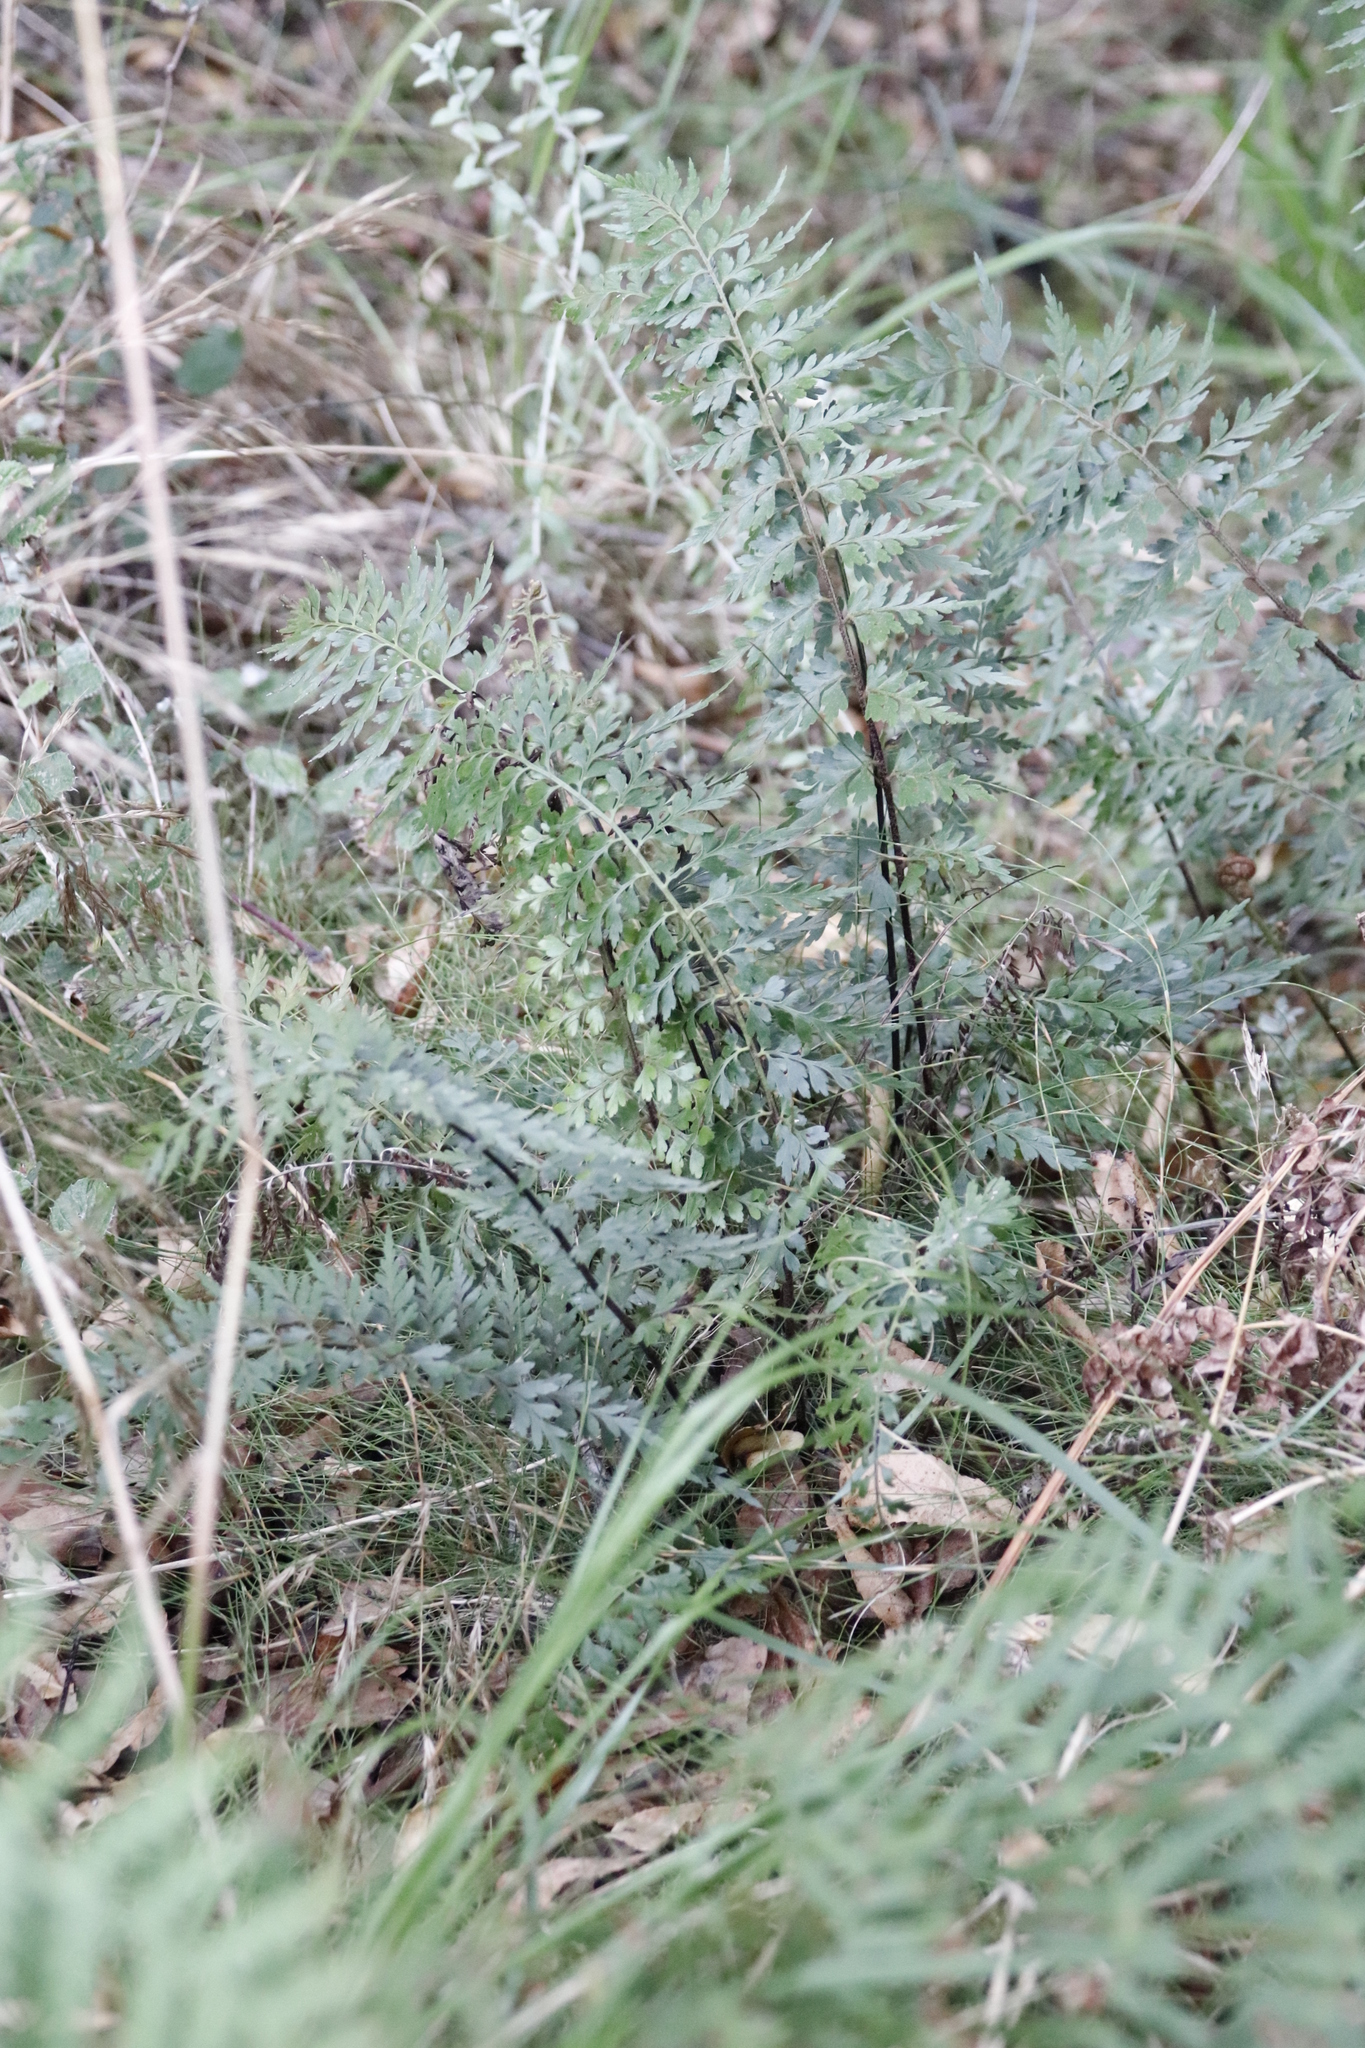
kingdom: Plantae
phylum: Tracheophyta
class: Polypodiopsida
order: Polypodiales
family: Aspleniaceae
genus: Asplenium
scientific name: Asplenium aethiopicum
